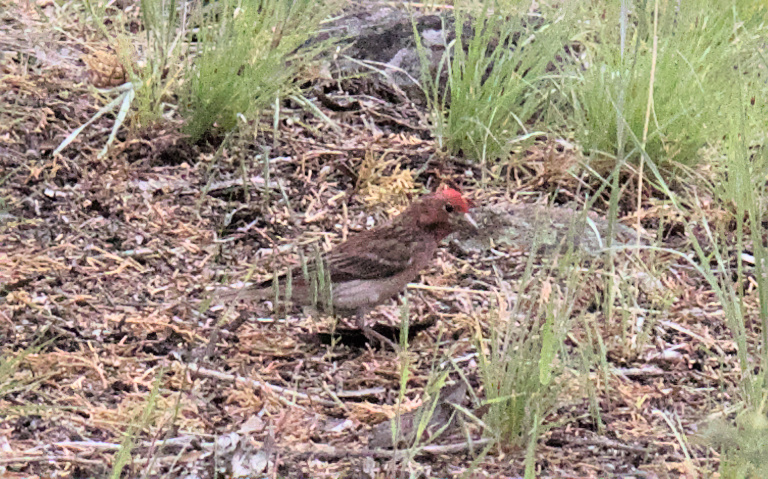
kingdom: Animalia
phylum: Chordata
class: Aves
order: Passeriformes
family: Fringillidae
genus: Haemorhous
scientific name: Haemorhous cassinii
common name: Cassin's finch
